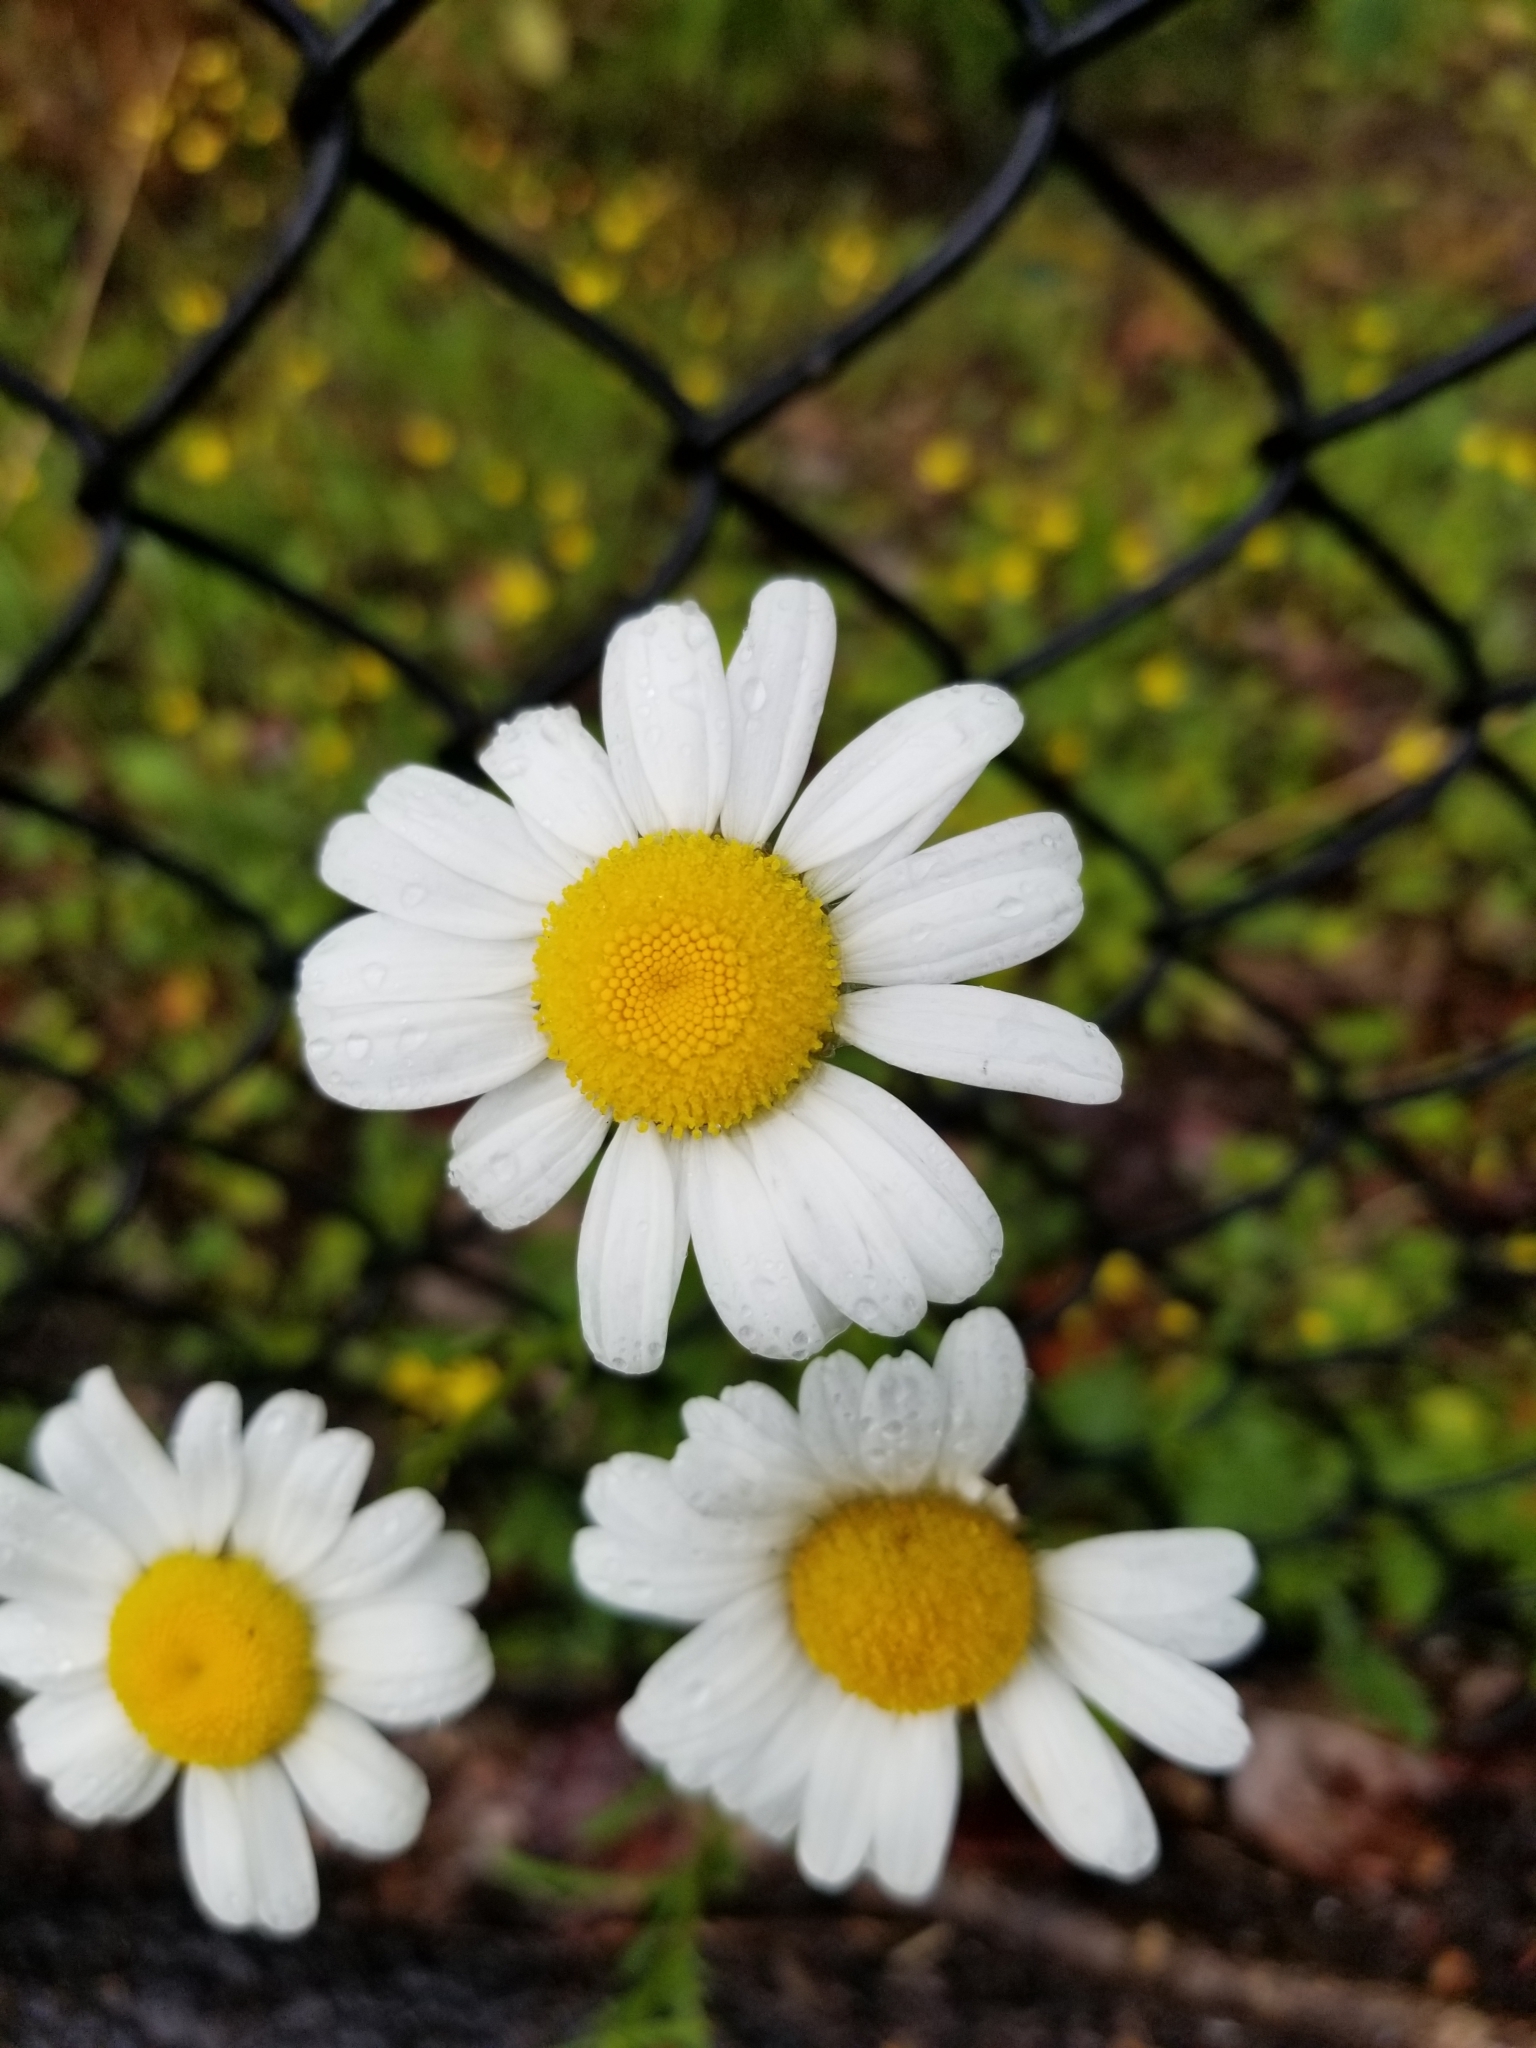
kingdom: Plantae
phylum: Tracheophyta
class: Magnoliopsida
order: Asterales
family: Asteraceae
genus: Leucanthemum
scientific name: Leucanthemum vulgare
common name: Oxeye daisy
